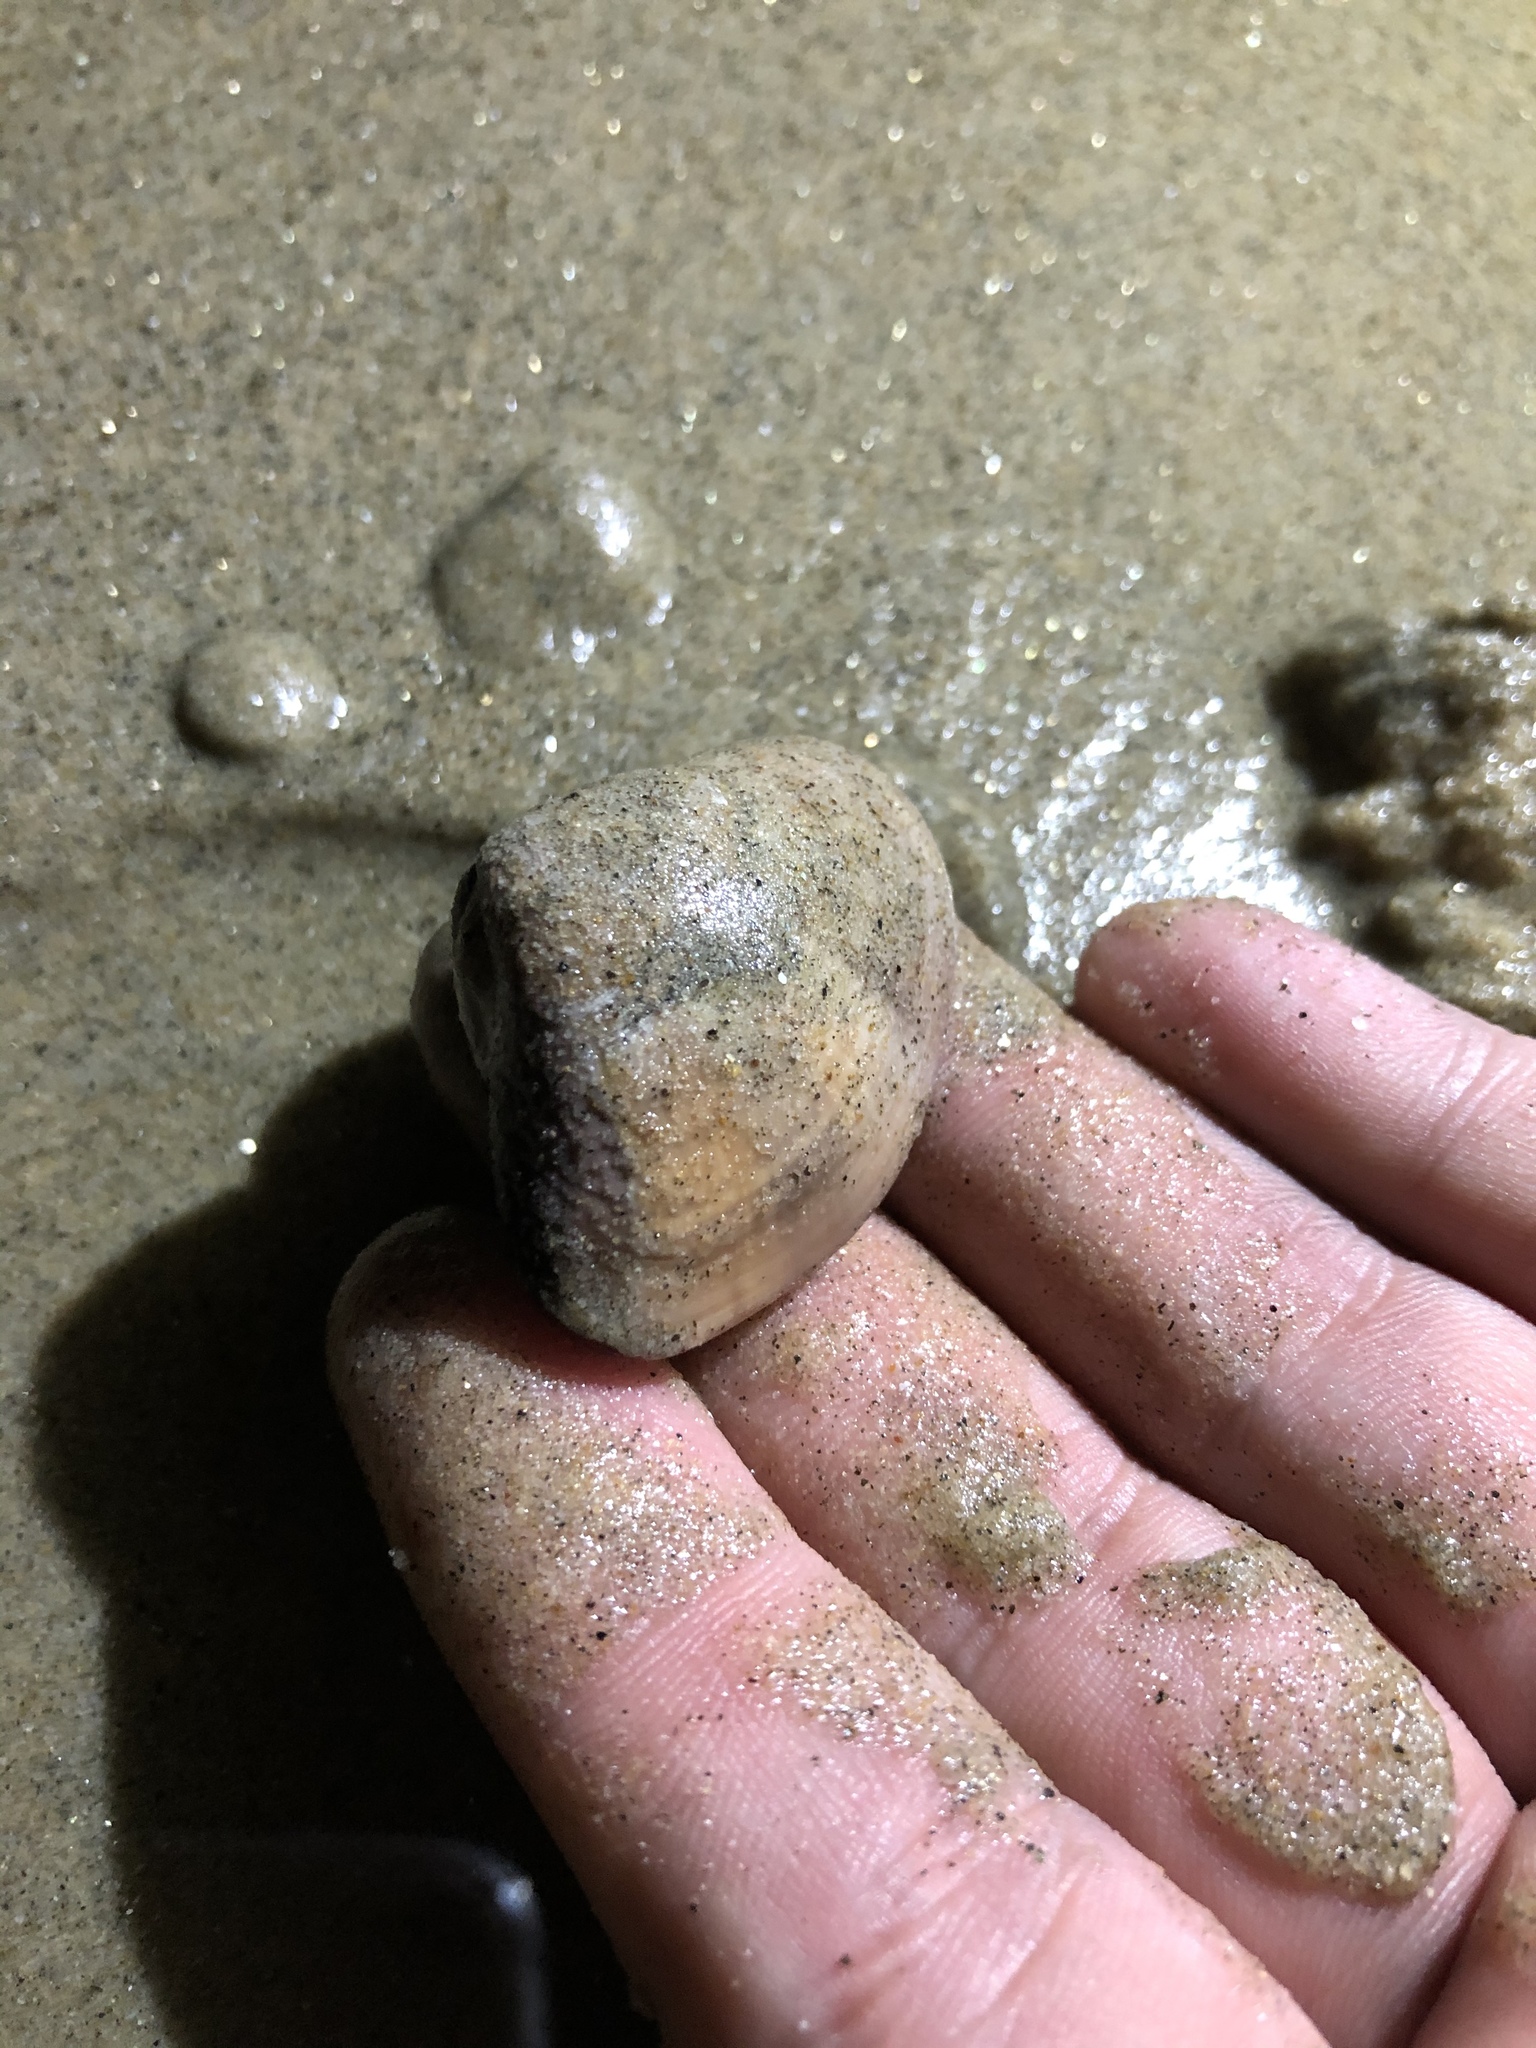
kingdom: Animalia
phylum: Mollusca
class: Bivalvia
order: Venerida
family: Veneridae
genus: Tivela
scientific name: Tivela stultorum
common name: Pismo clam
